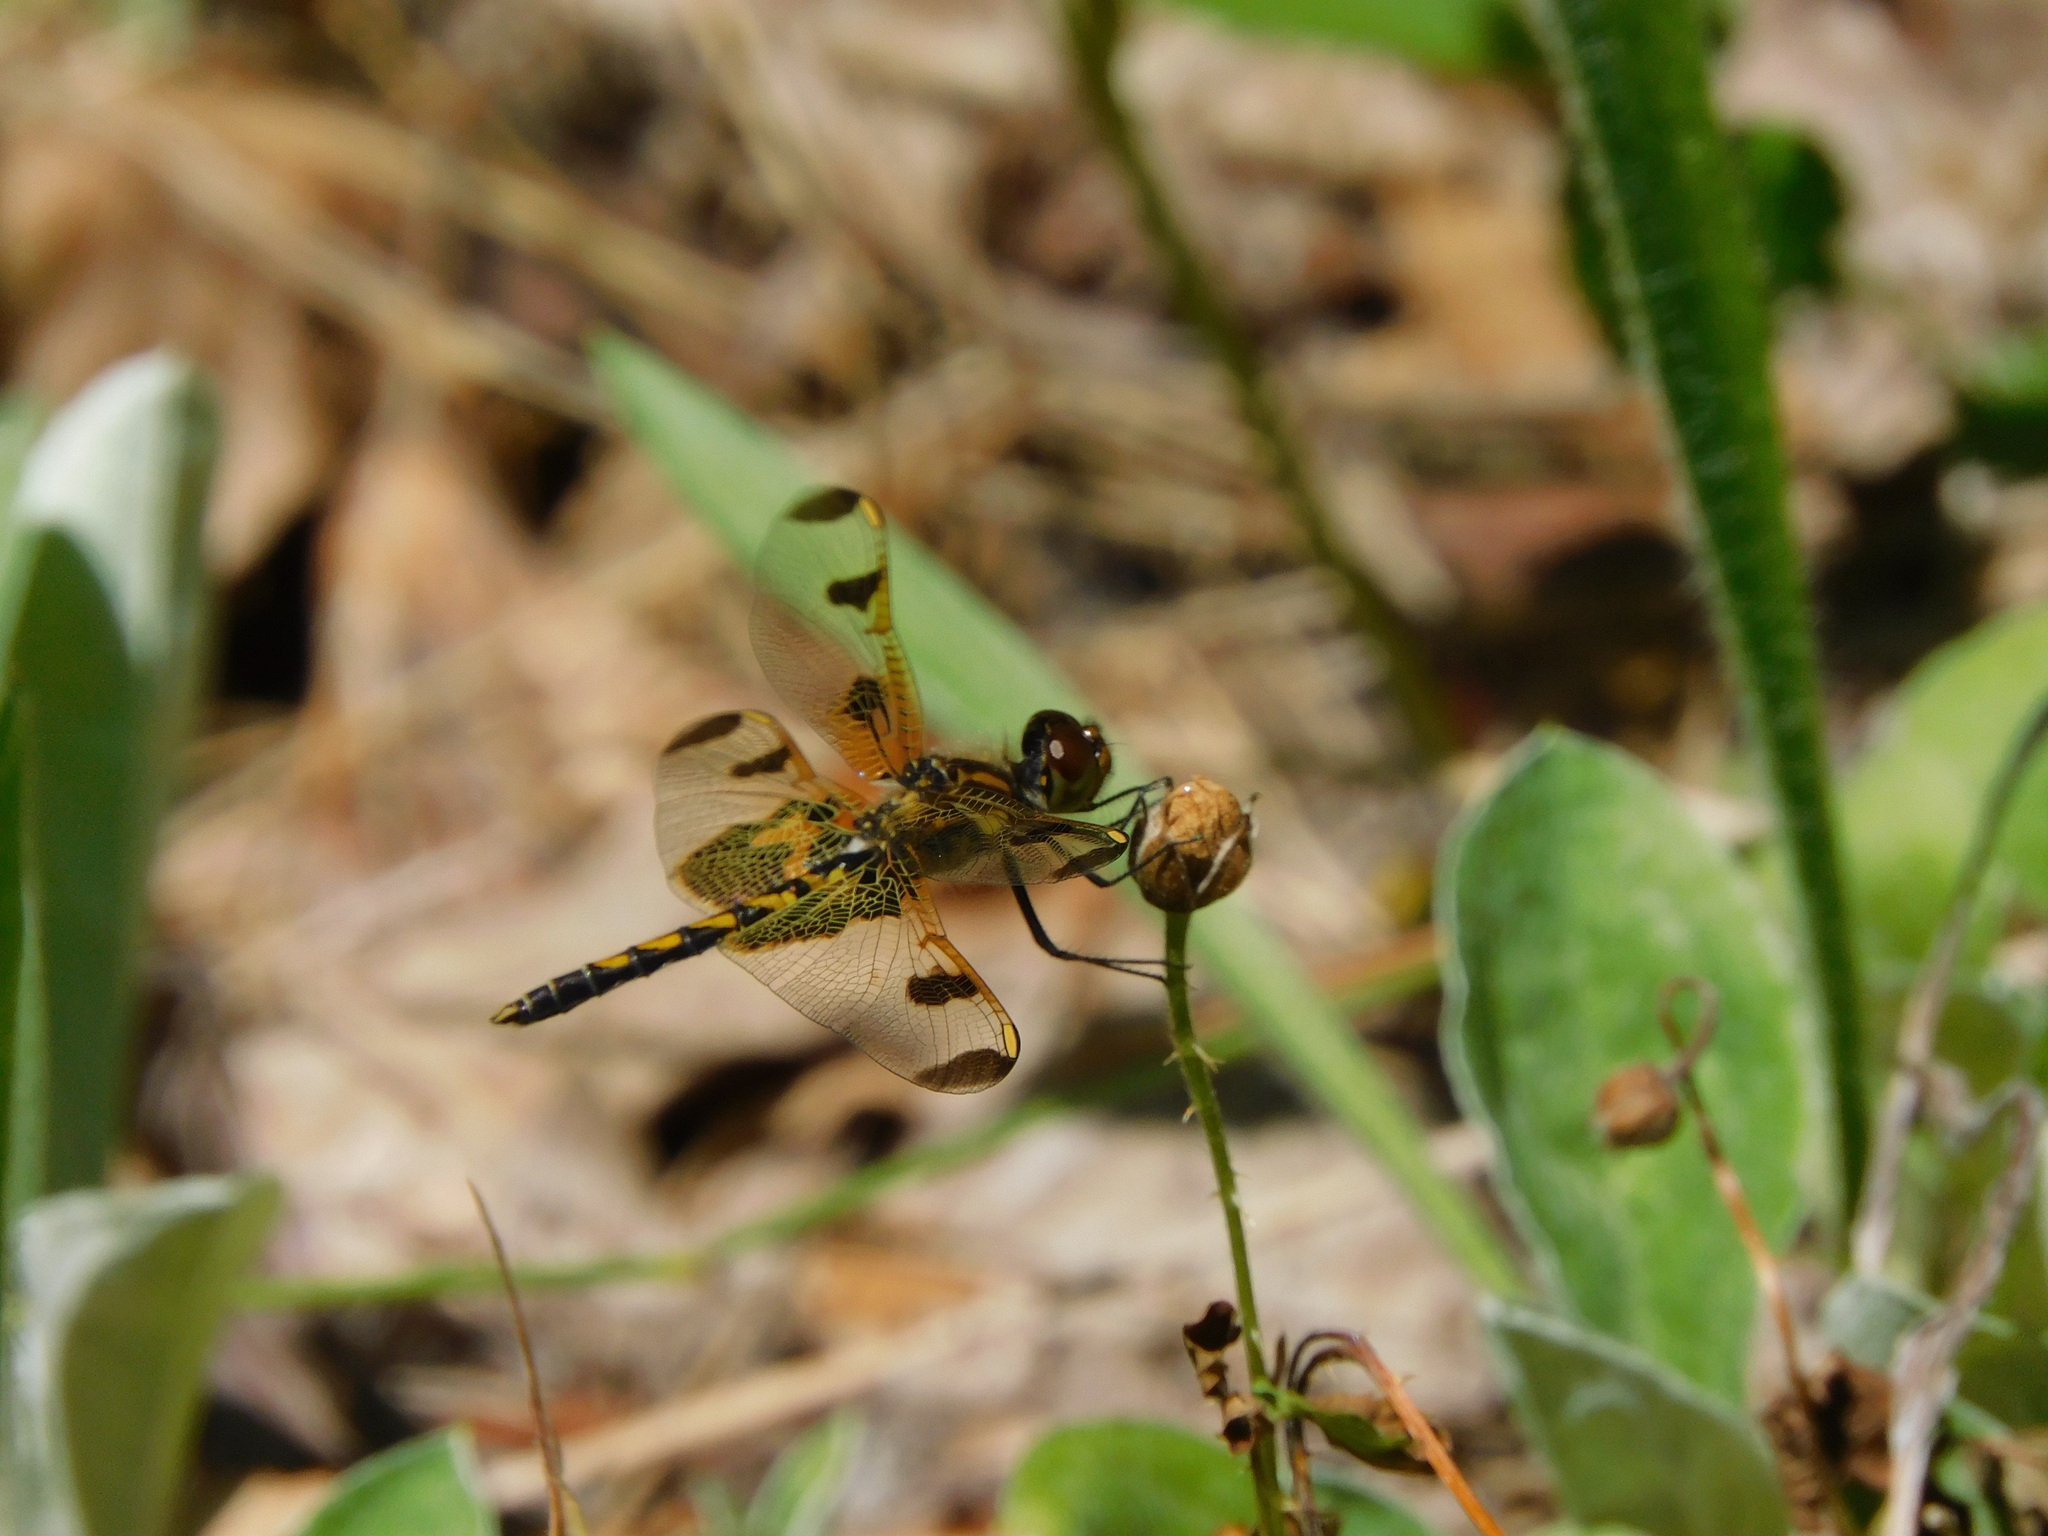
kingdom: Animalia
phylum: Arthropoda
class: Insecta
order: Odonata
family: Libellulidae
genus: Celithemis
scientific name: Celithemis elisa
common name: Calico pennant
